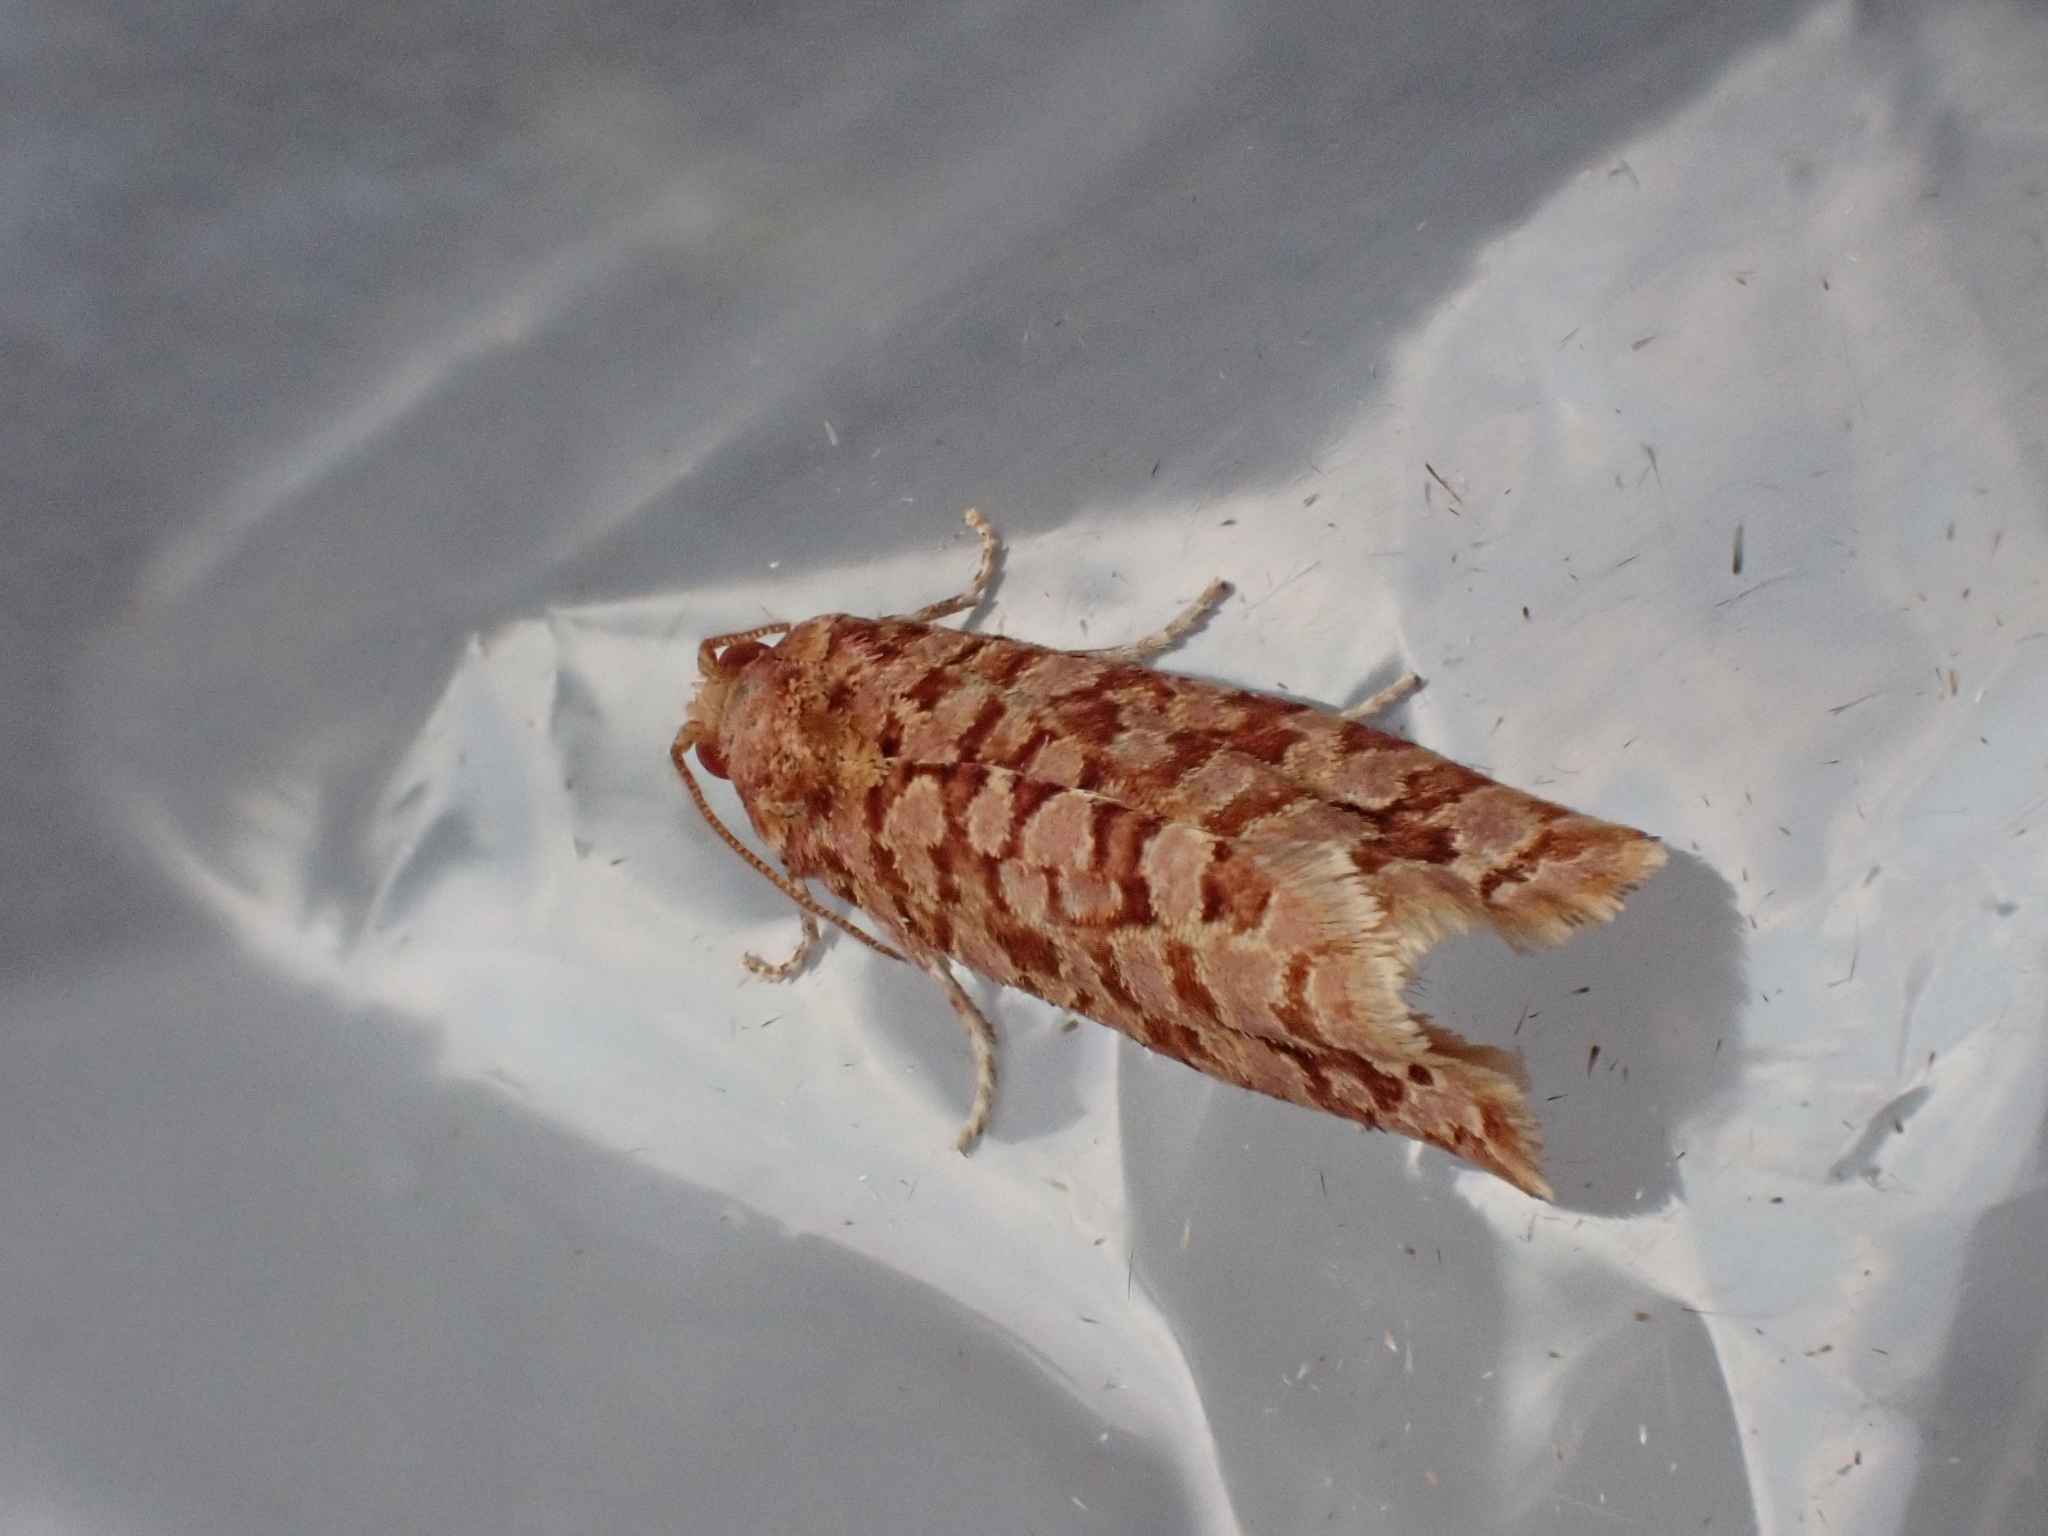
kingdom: Animalia
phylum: Arthropoda
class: Insecta
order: Lepidoptera
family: Tortricidae
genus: Lozotaeniodes
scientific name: Lozotaeniodes formosana
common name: Orange pine twist
